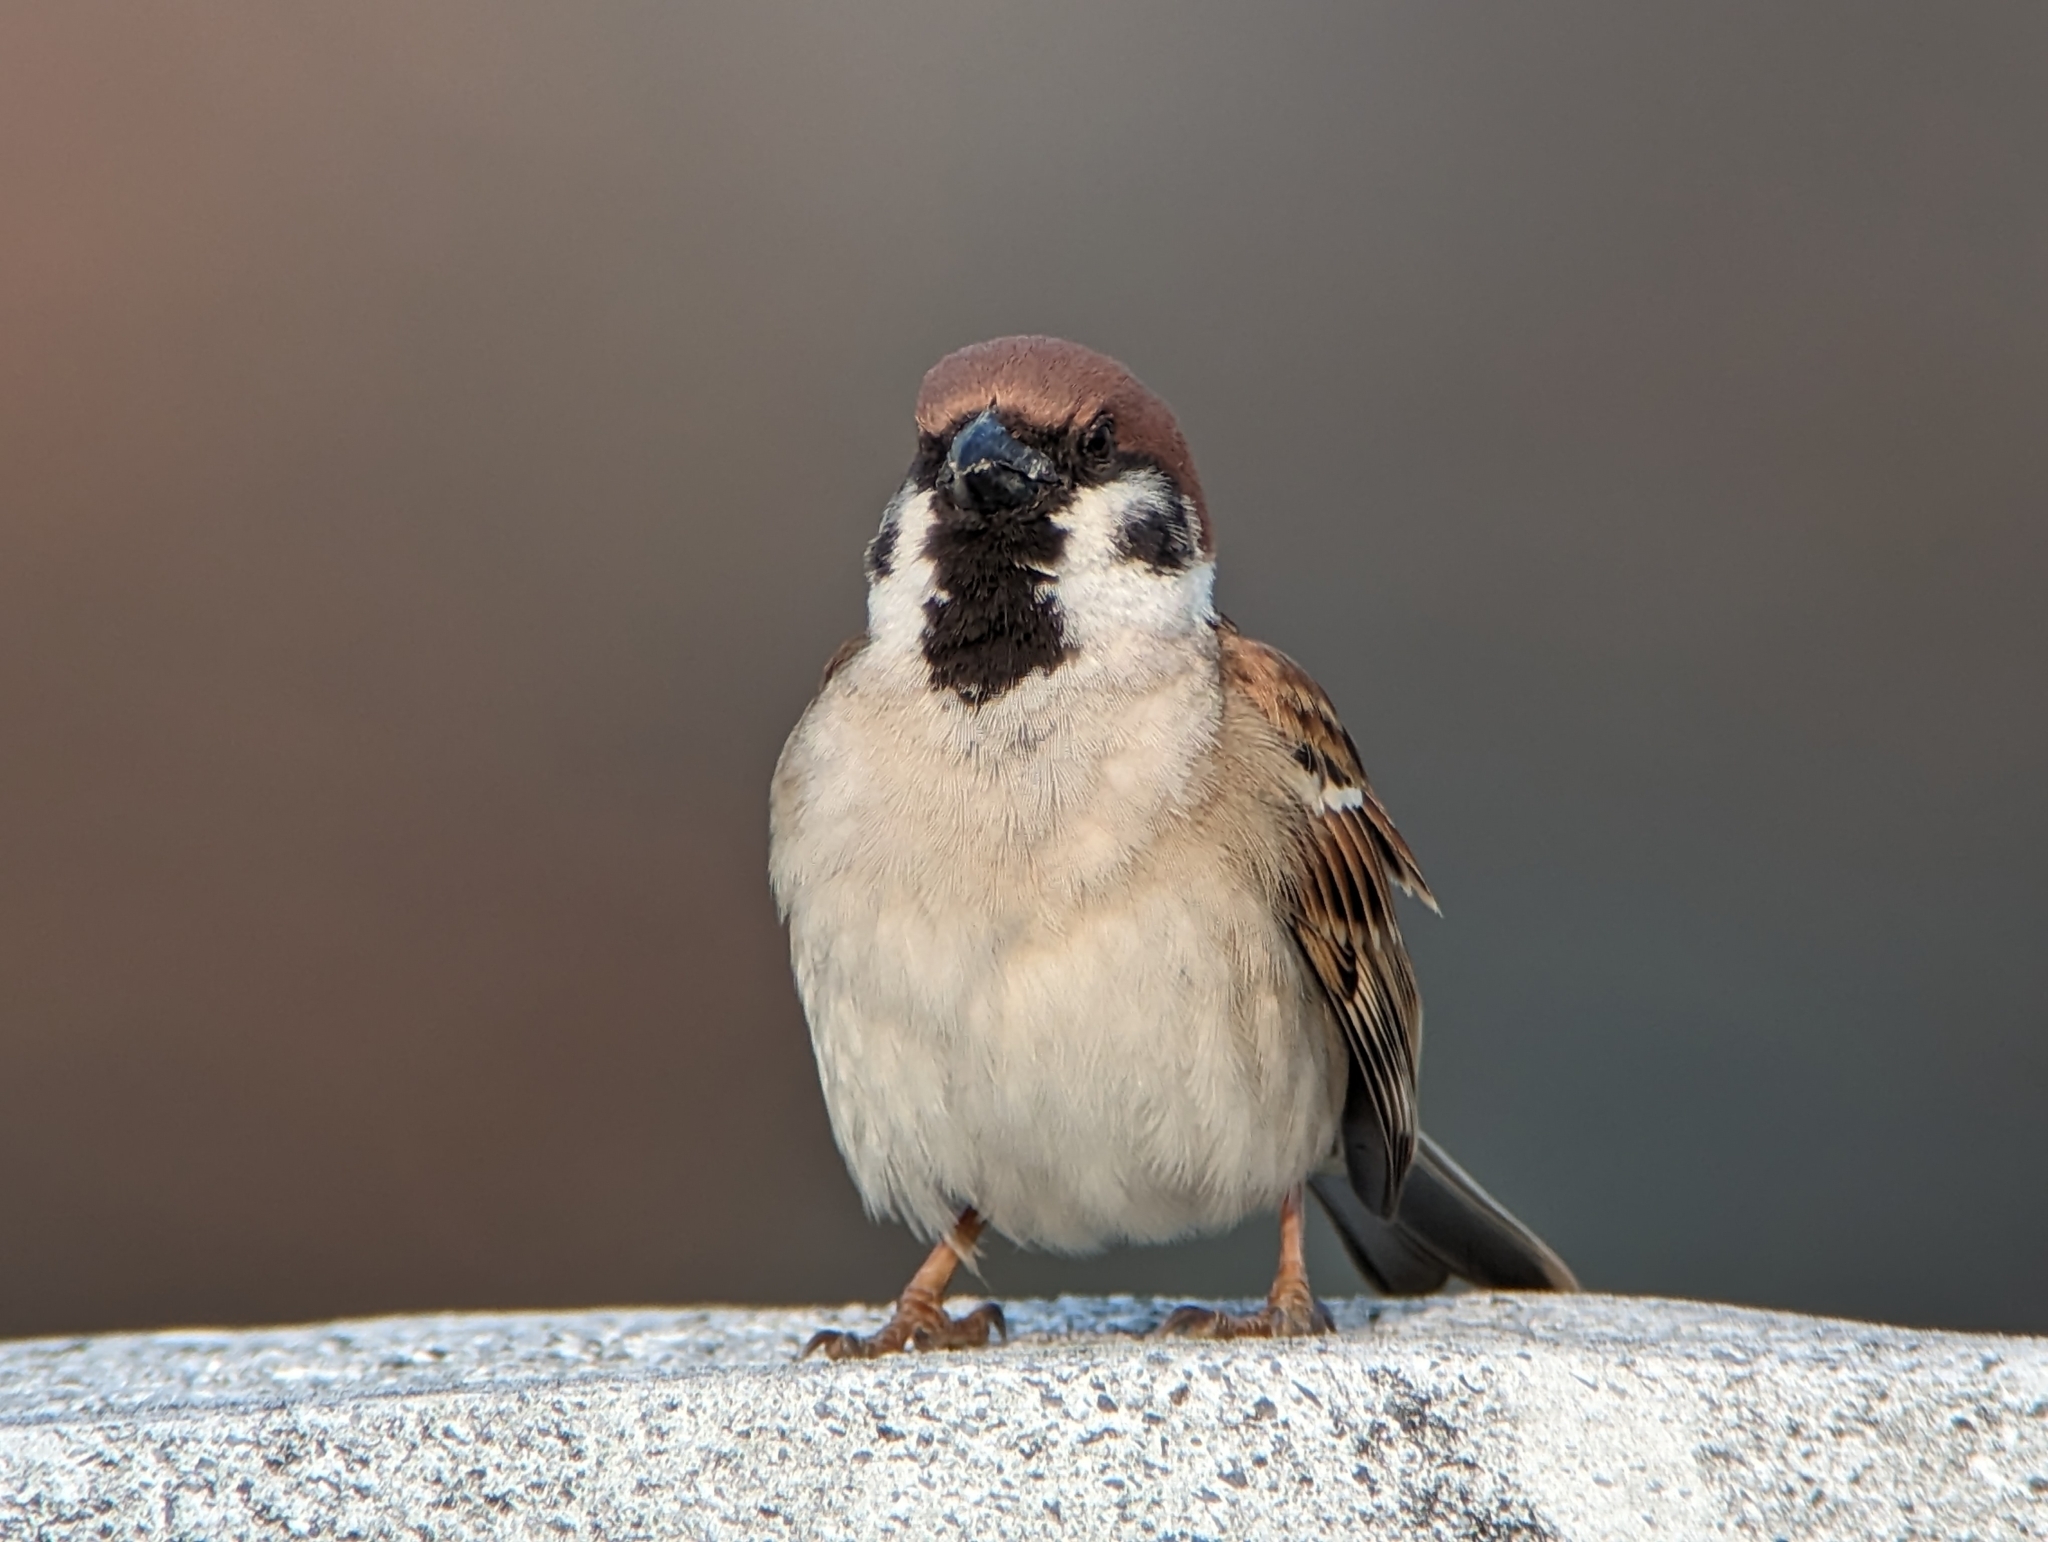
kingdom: Animalia
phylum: Chordata
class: Aves
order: Passeriformes
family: Passeridae
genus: Passer
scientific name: Passer montanus
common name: Eurasian tree sparrow
